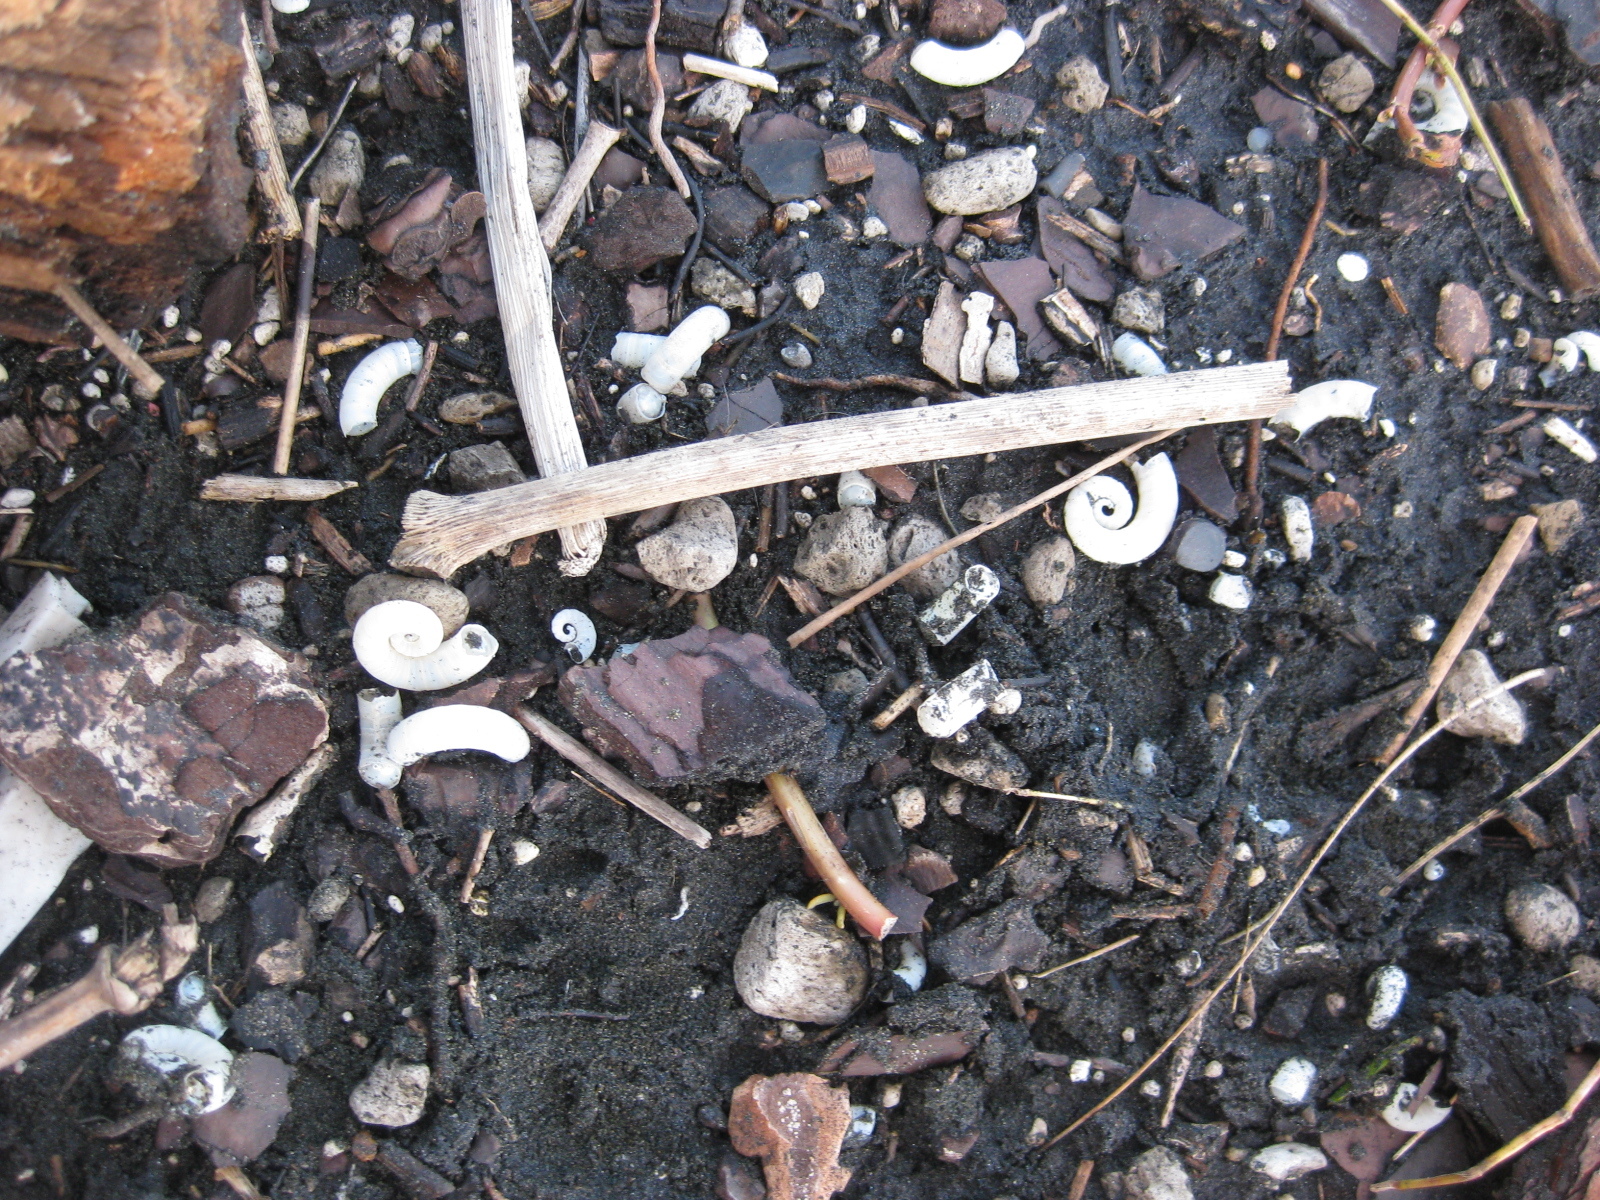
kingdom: Animalia
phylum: Mollusca
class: Cephalopoda
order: Spirulida
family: Spirulidae
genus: Spirula
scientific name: Spirula spirula
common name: Ram's horn squid
